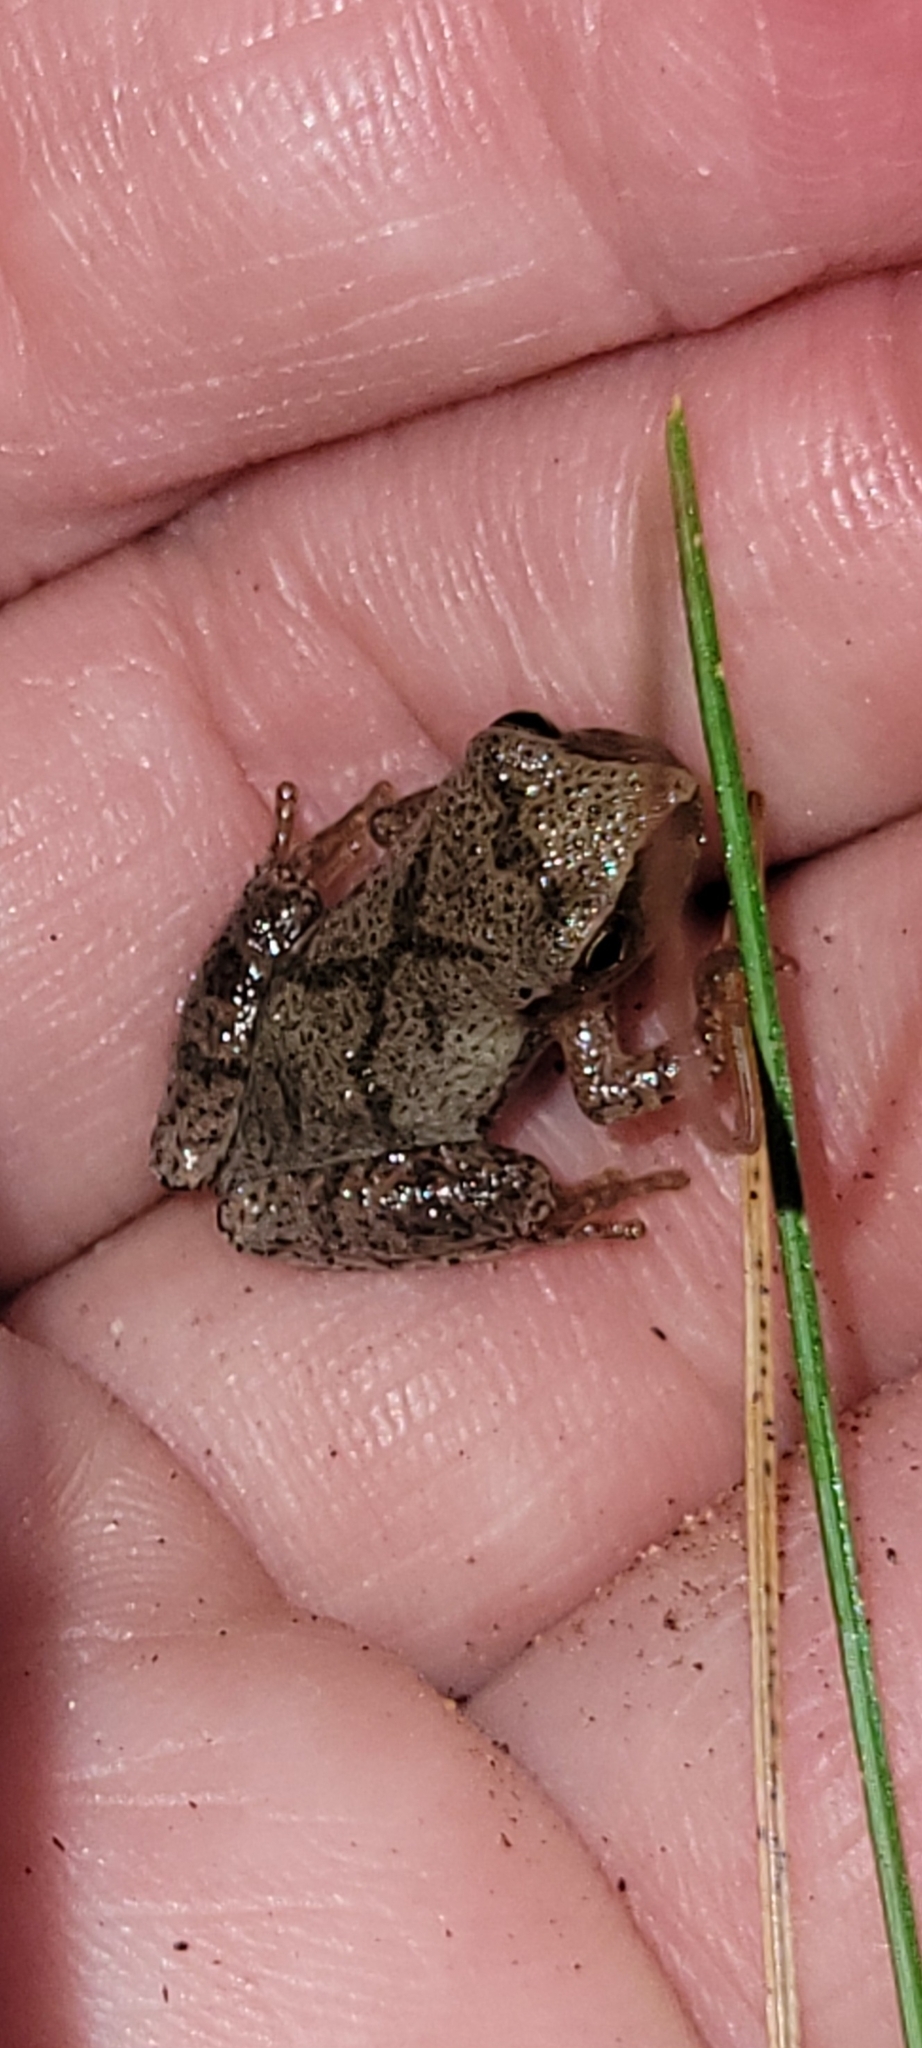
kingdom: Animalia
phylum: Chordata
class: Amphibia
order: Anura
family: Hylidae
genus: Pseudacris
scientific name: Pseudacris crucifer
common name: Spring peeper
